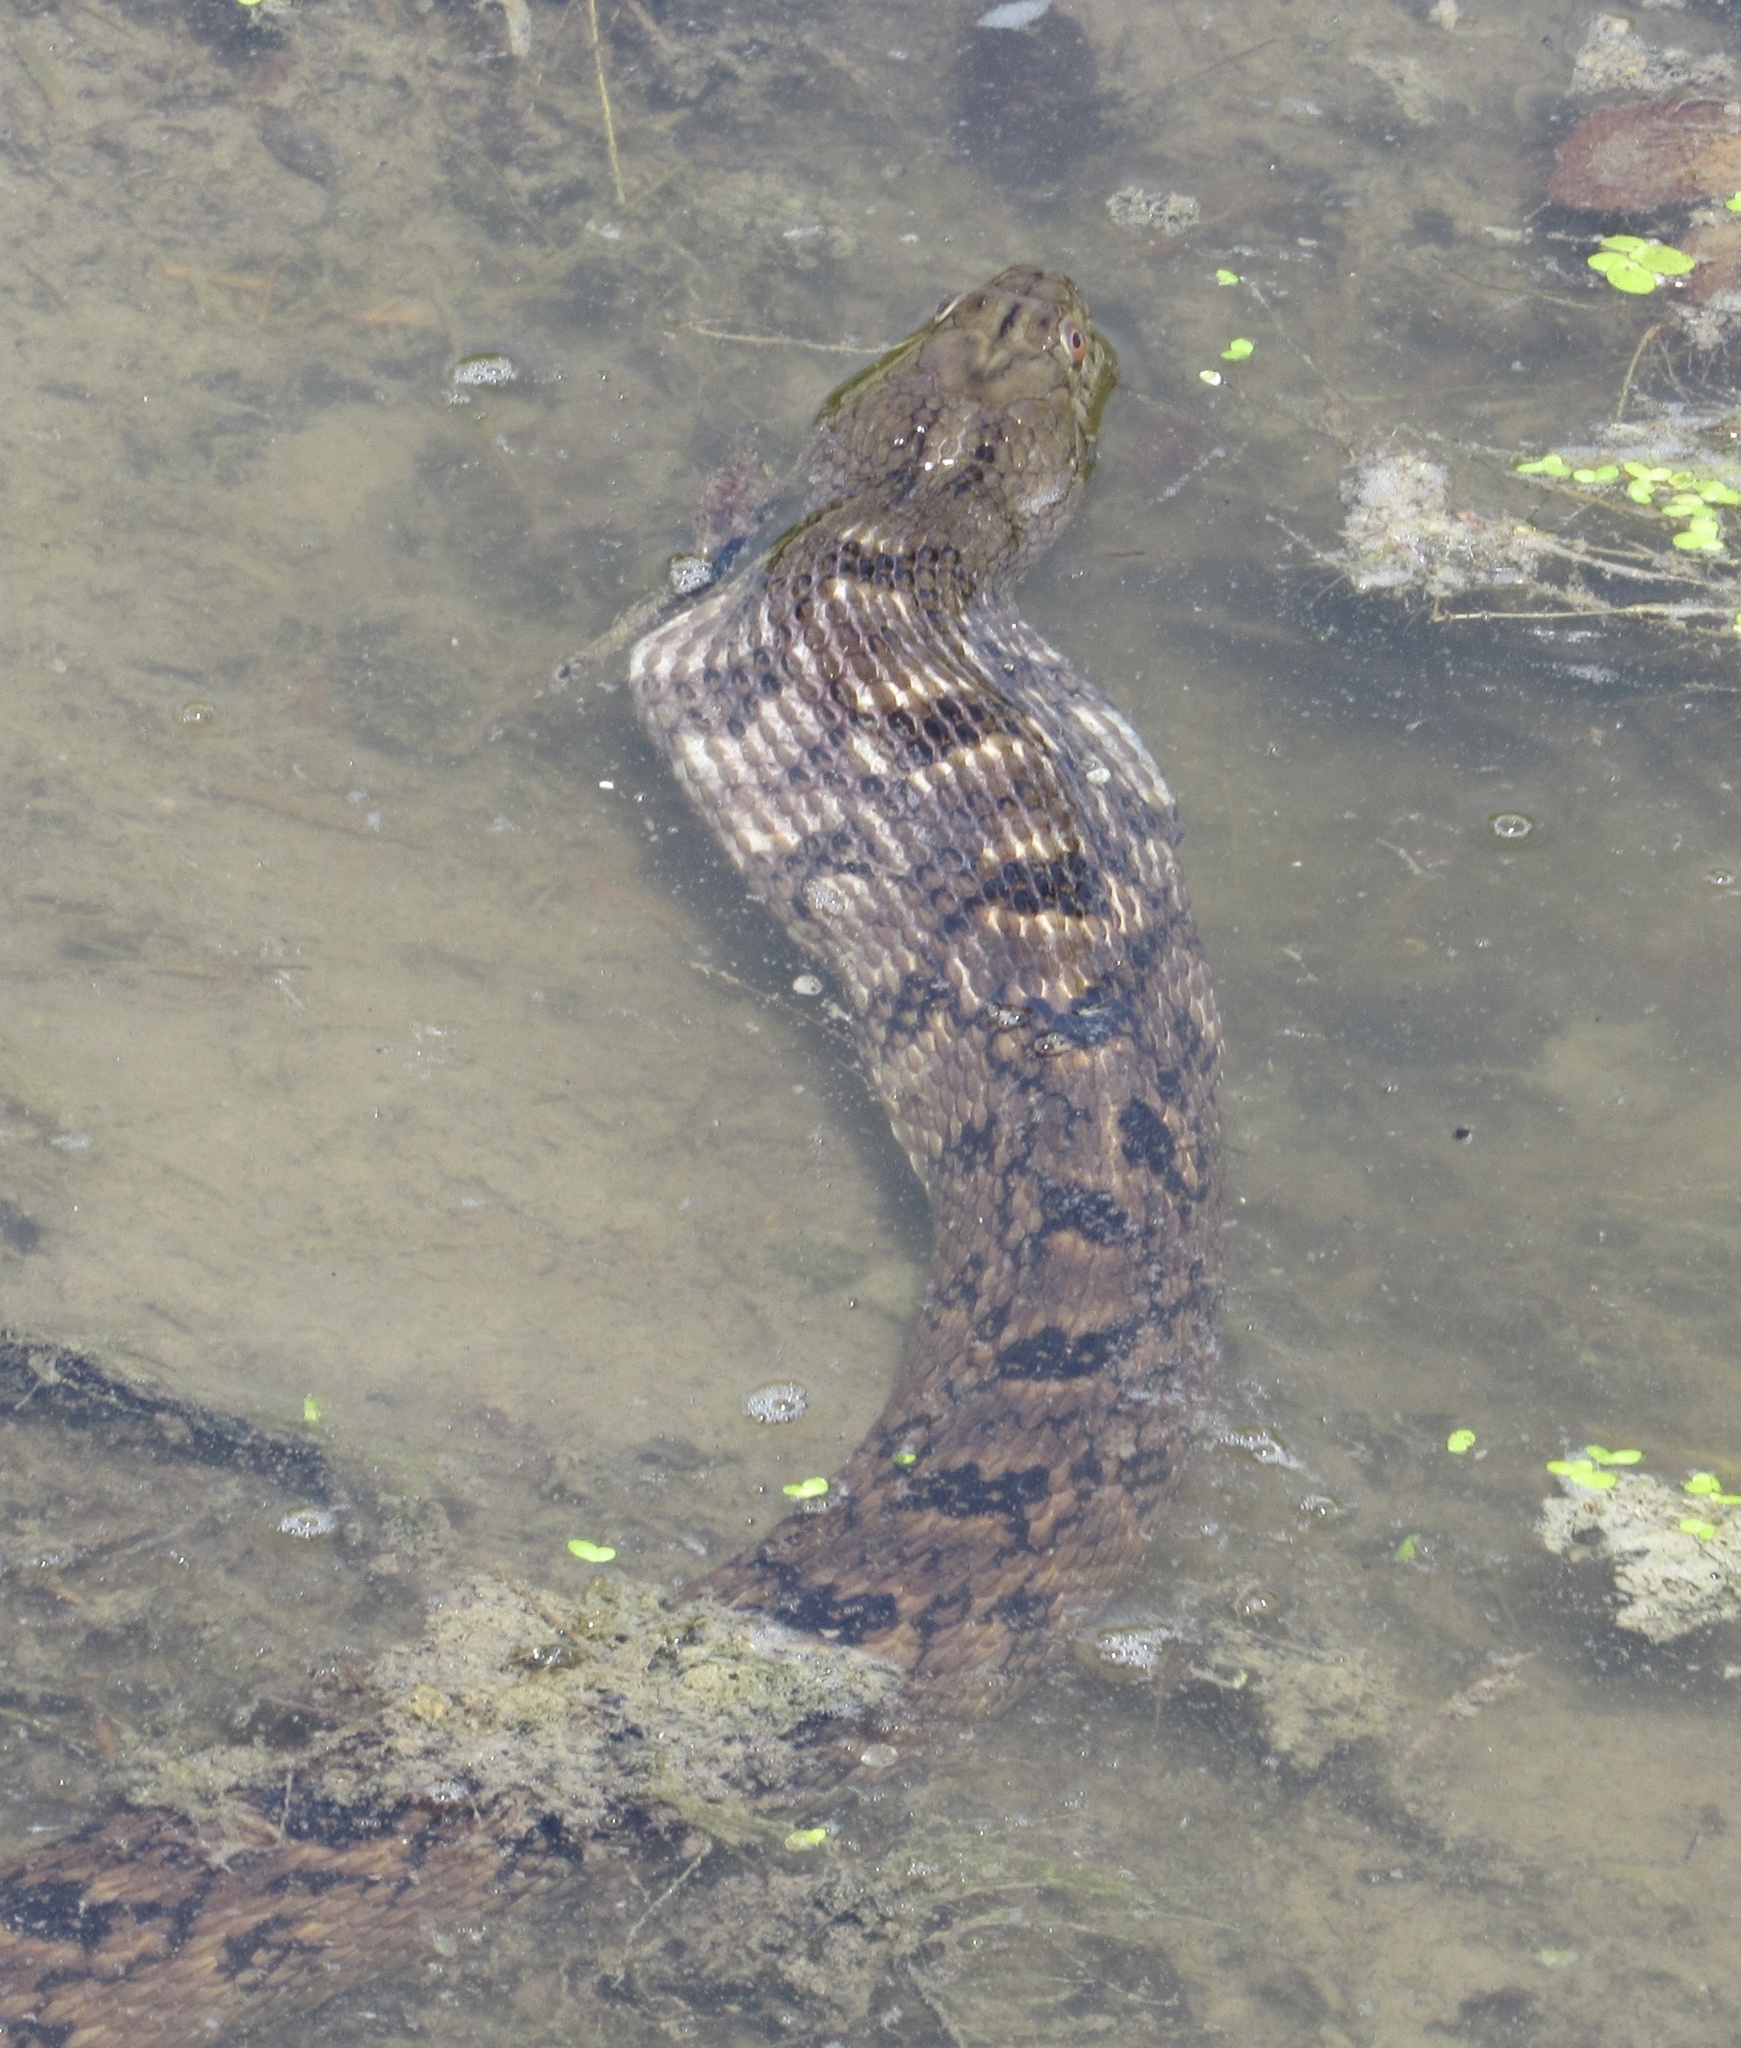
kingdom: Animalia
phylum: Chordata
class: Squamata
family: Colubridae
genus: Nerodia
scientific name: Nerodia rhombifer
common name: Diamondback water snake
